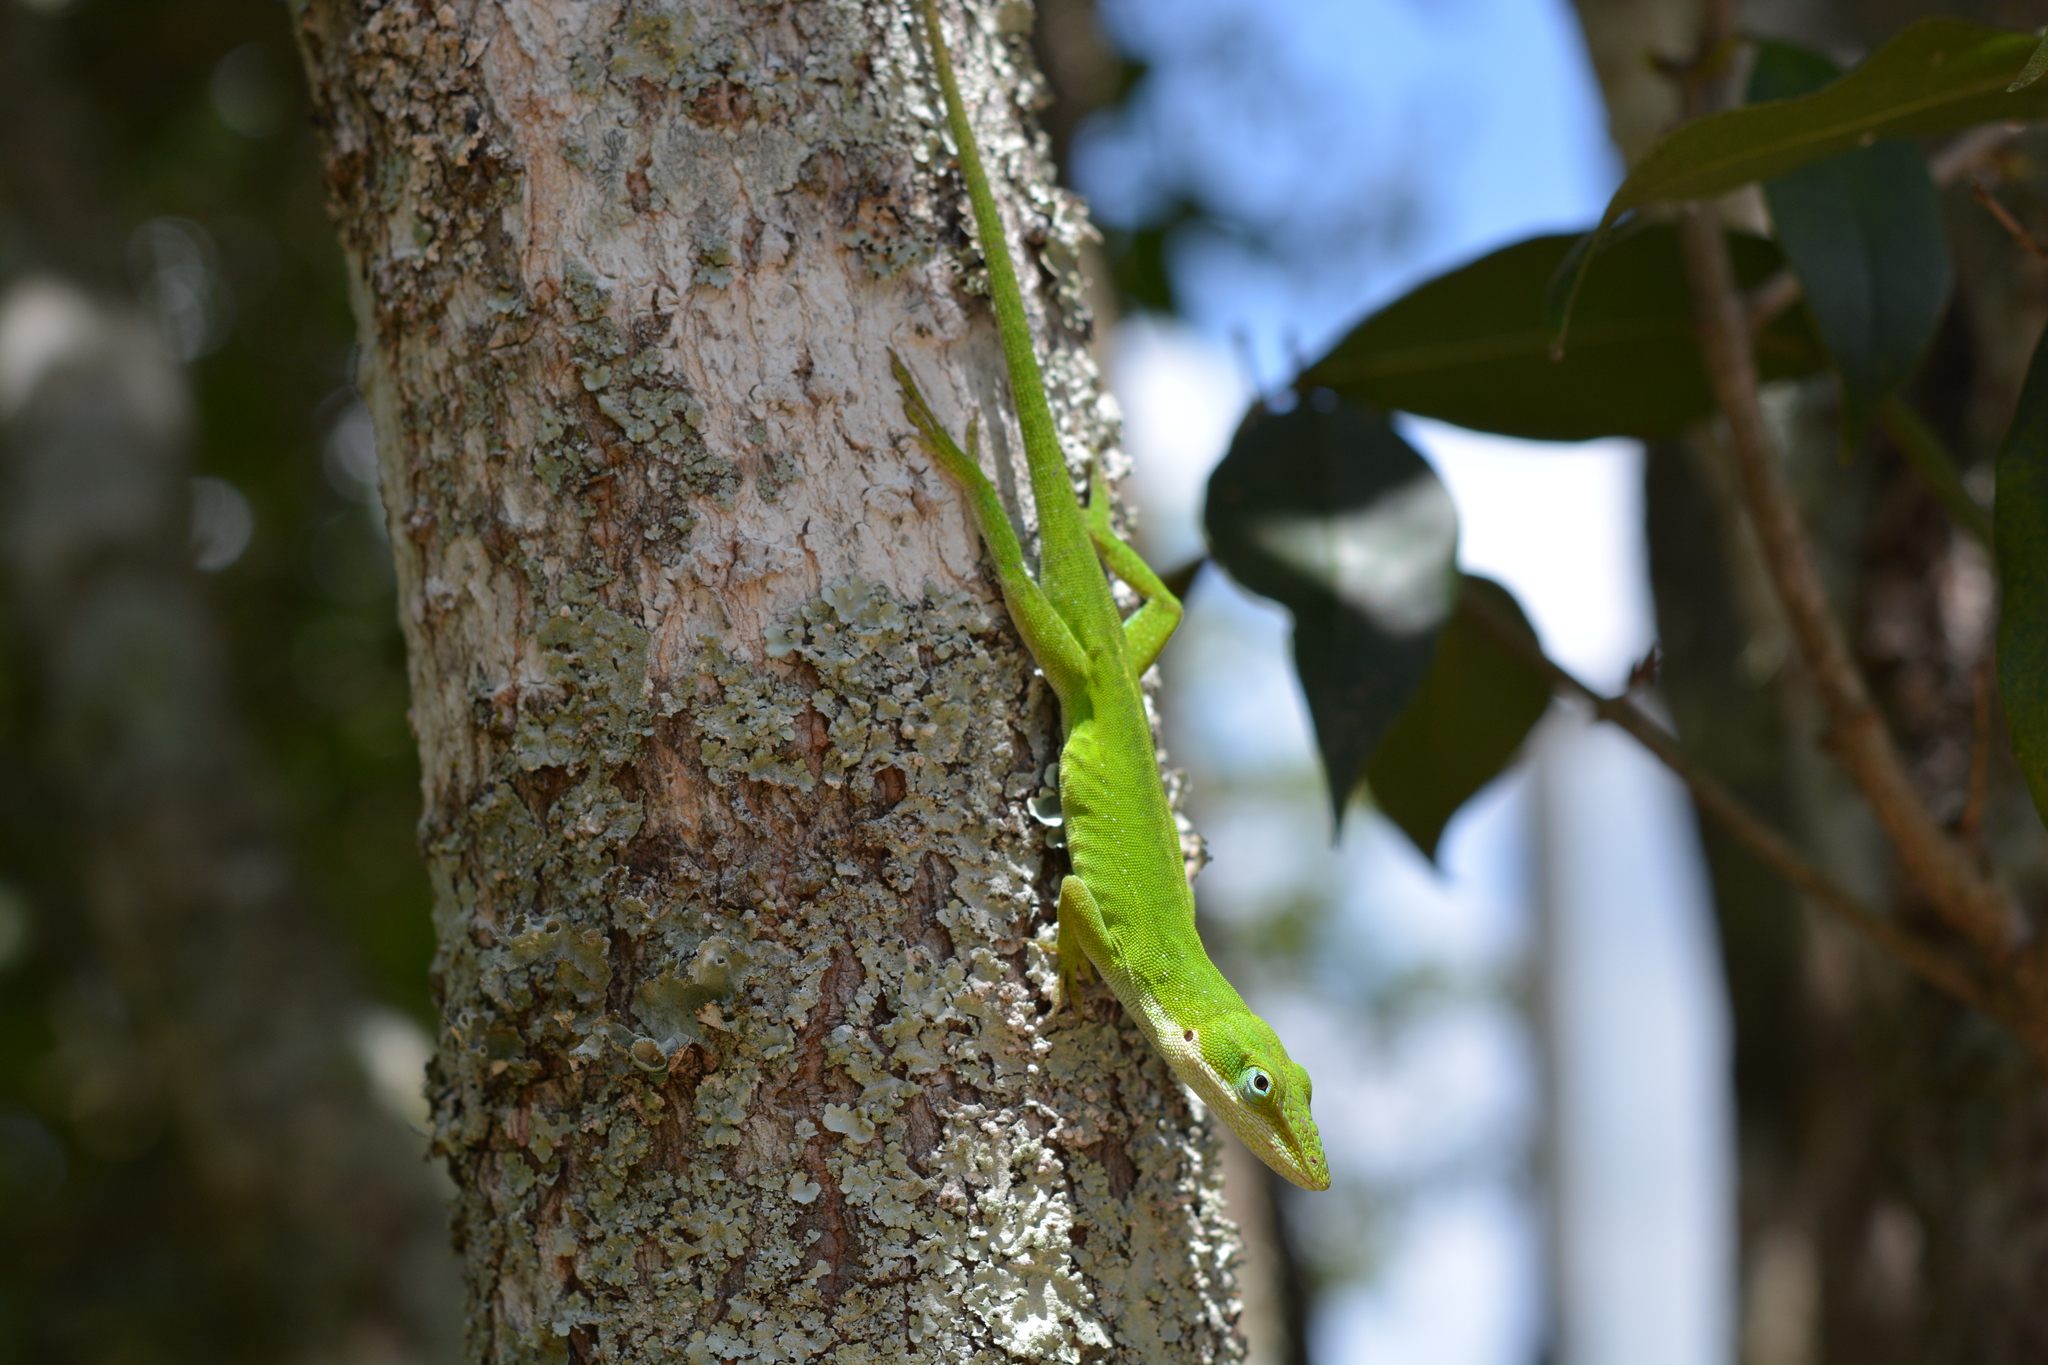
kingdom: Animalia
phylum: Chordata
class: Squamata
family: Dactyloidae
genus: Anolis
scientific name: Anolis carolinensis
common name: Green anole
